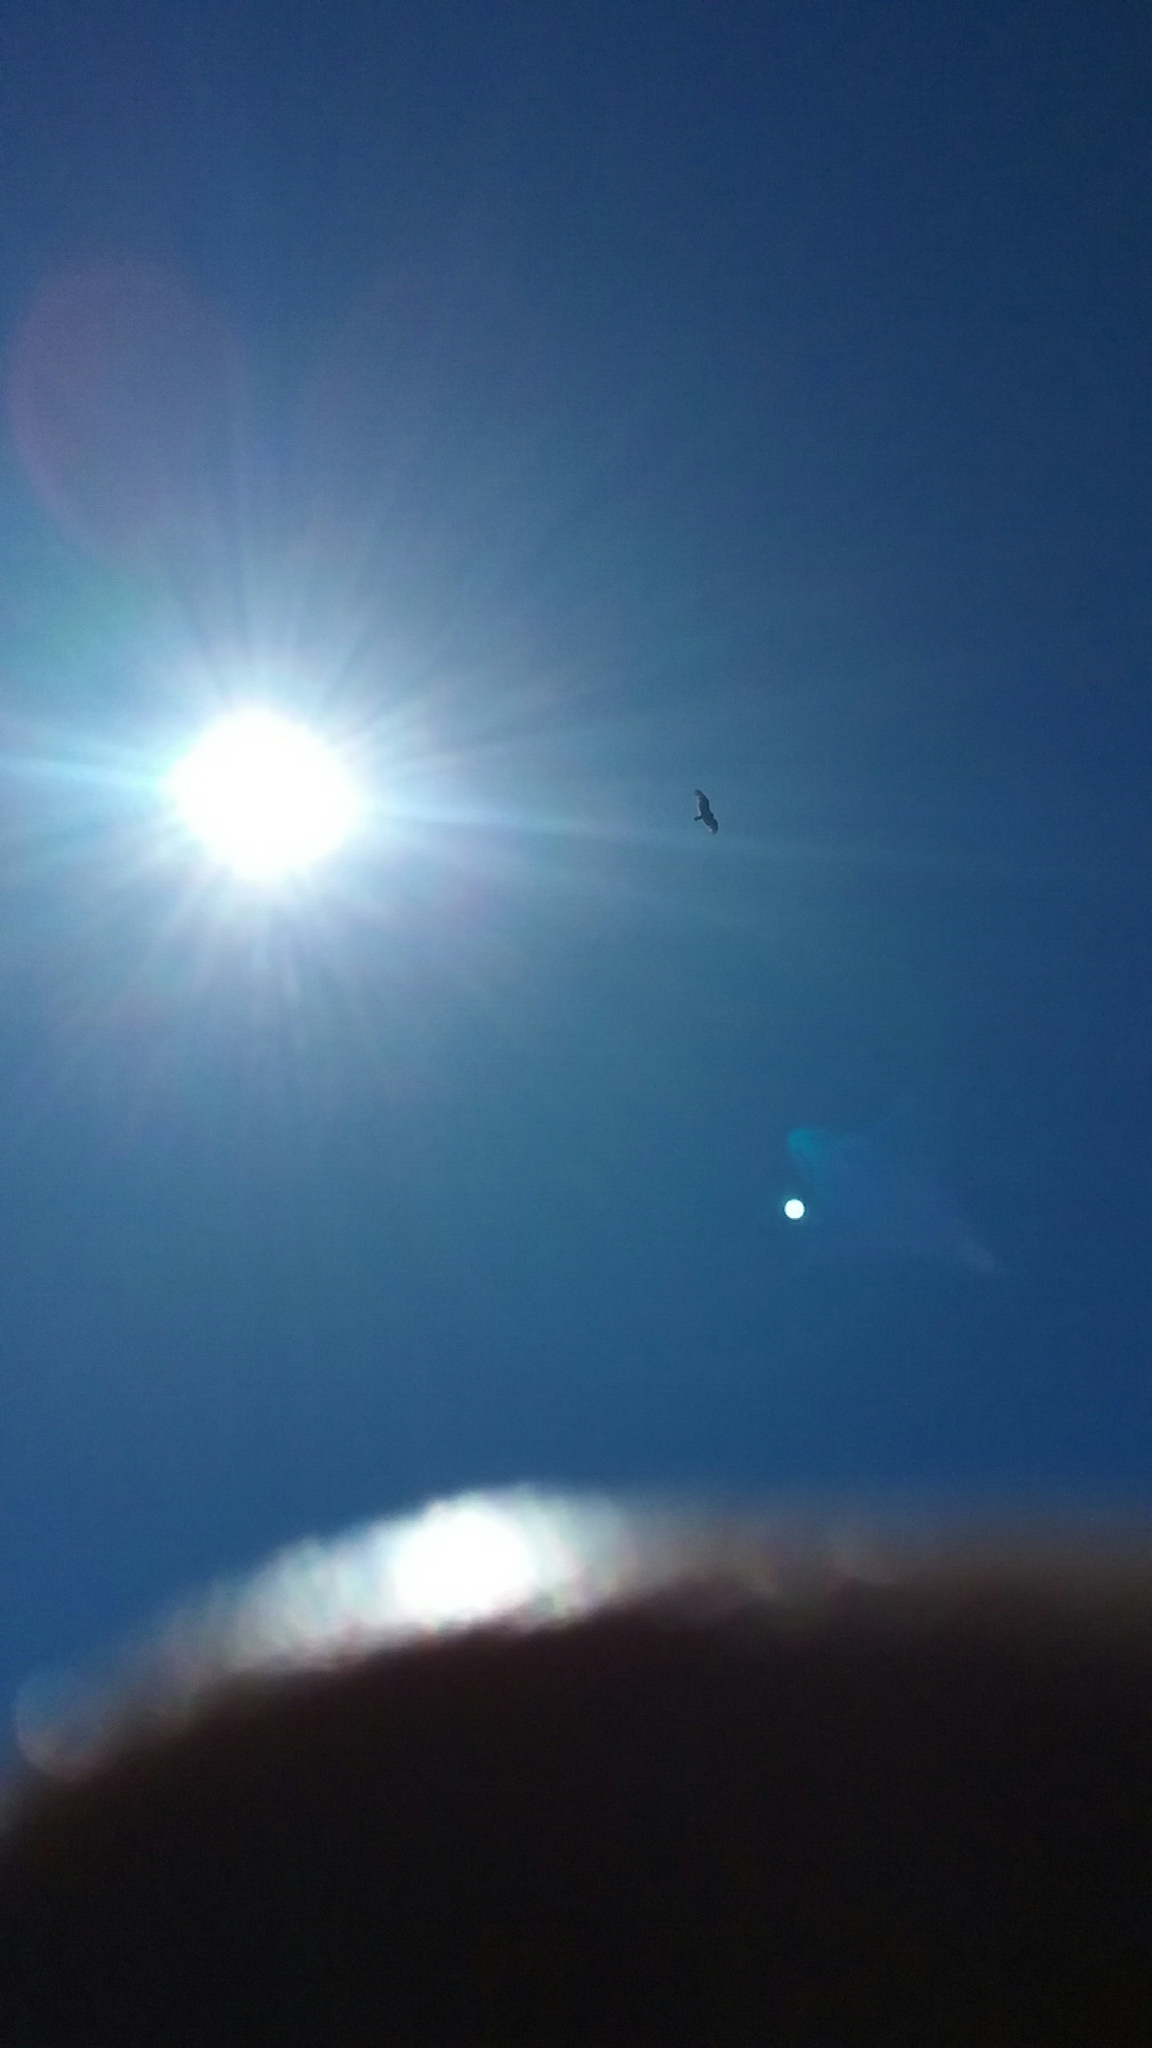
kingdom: Animalia
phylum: Chordata
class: Aves
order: Accipitriformes
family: Cathartidae
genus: Cathartes
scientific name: Cathartes aura
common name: Turkey vulture
